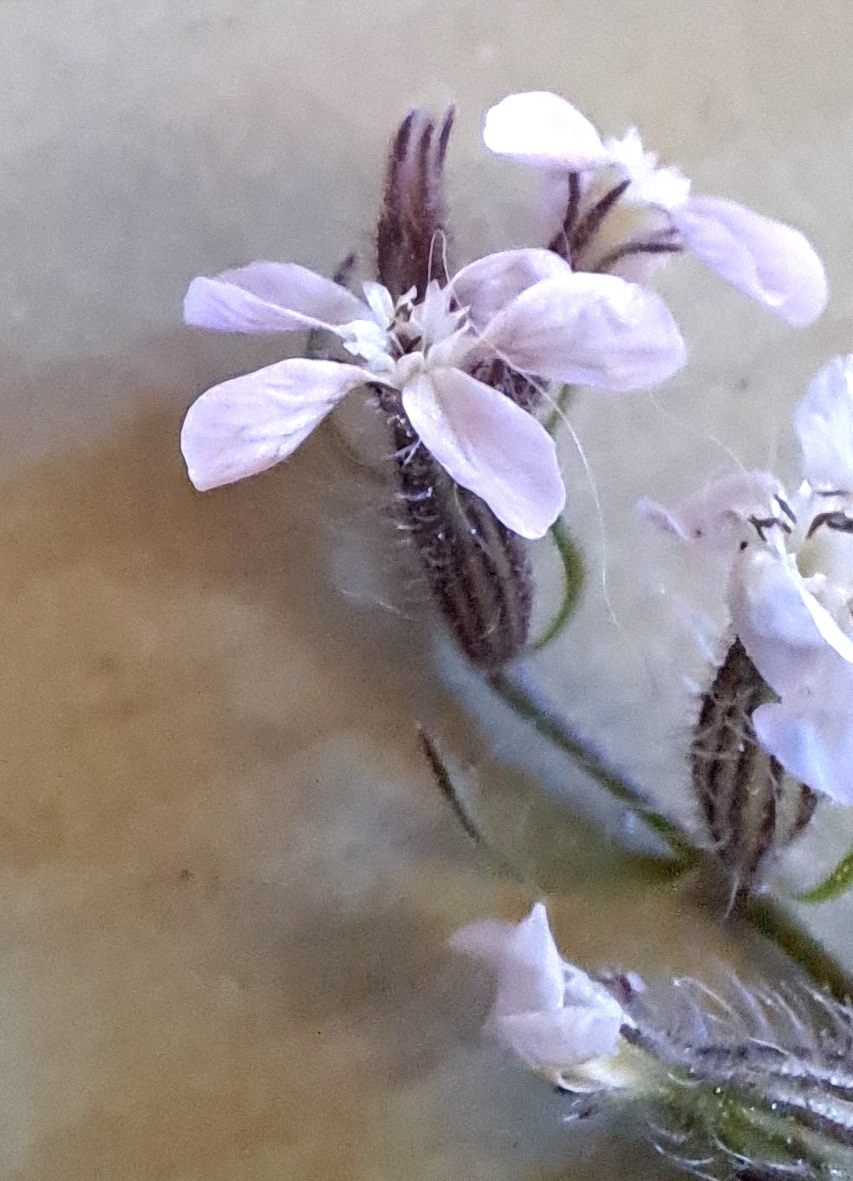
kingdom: Plantae
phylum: Tracheophyta
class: Magnoliopsida
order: Caryophyllales
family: Caryophyllaceae
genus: Silene
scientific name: Silene gallica
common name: Small-flowered catchfly
